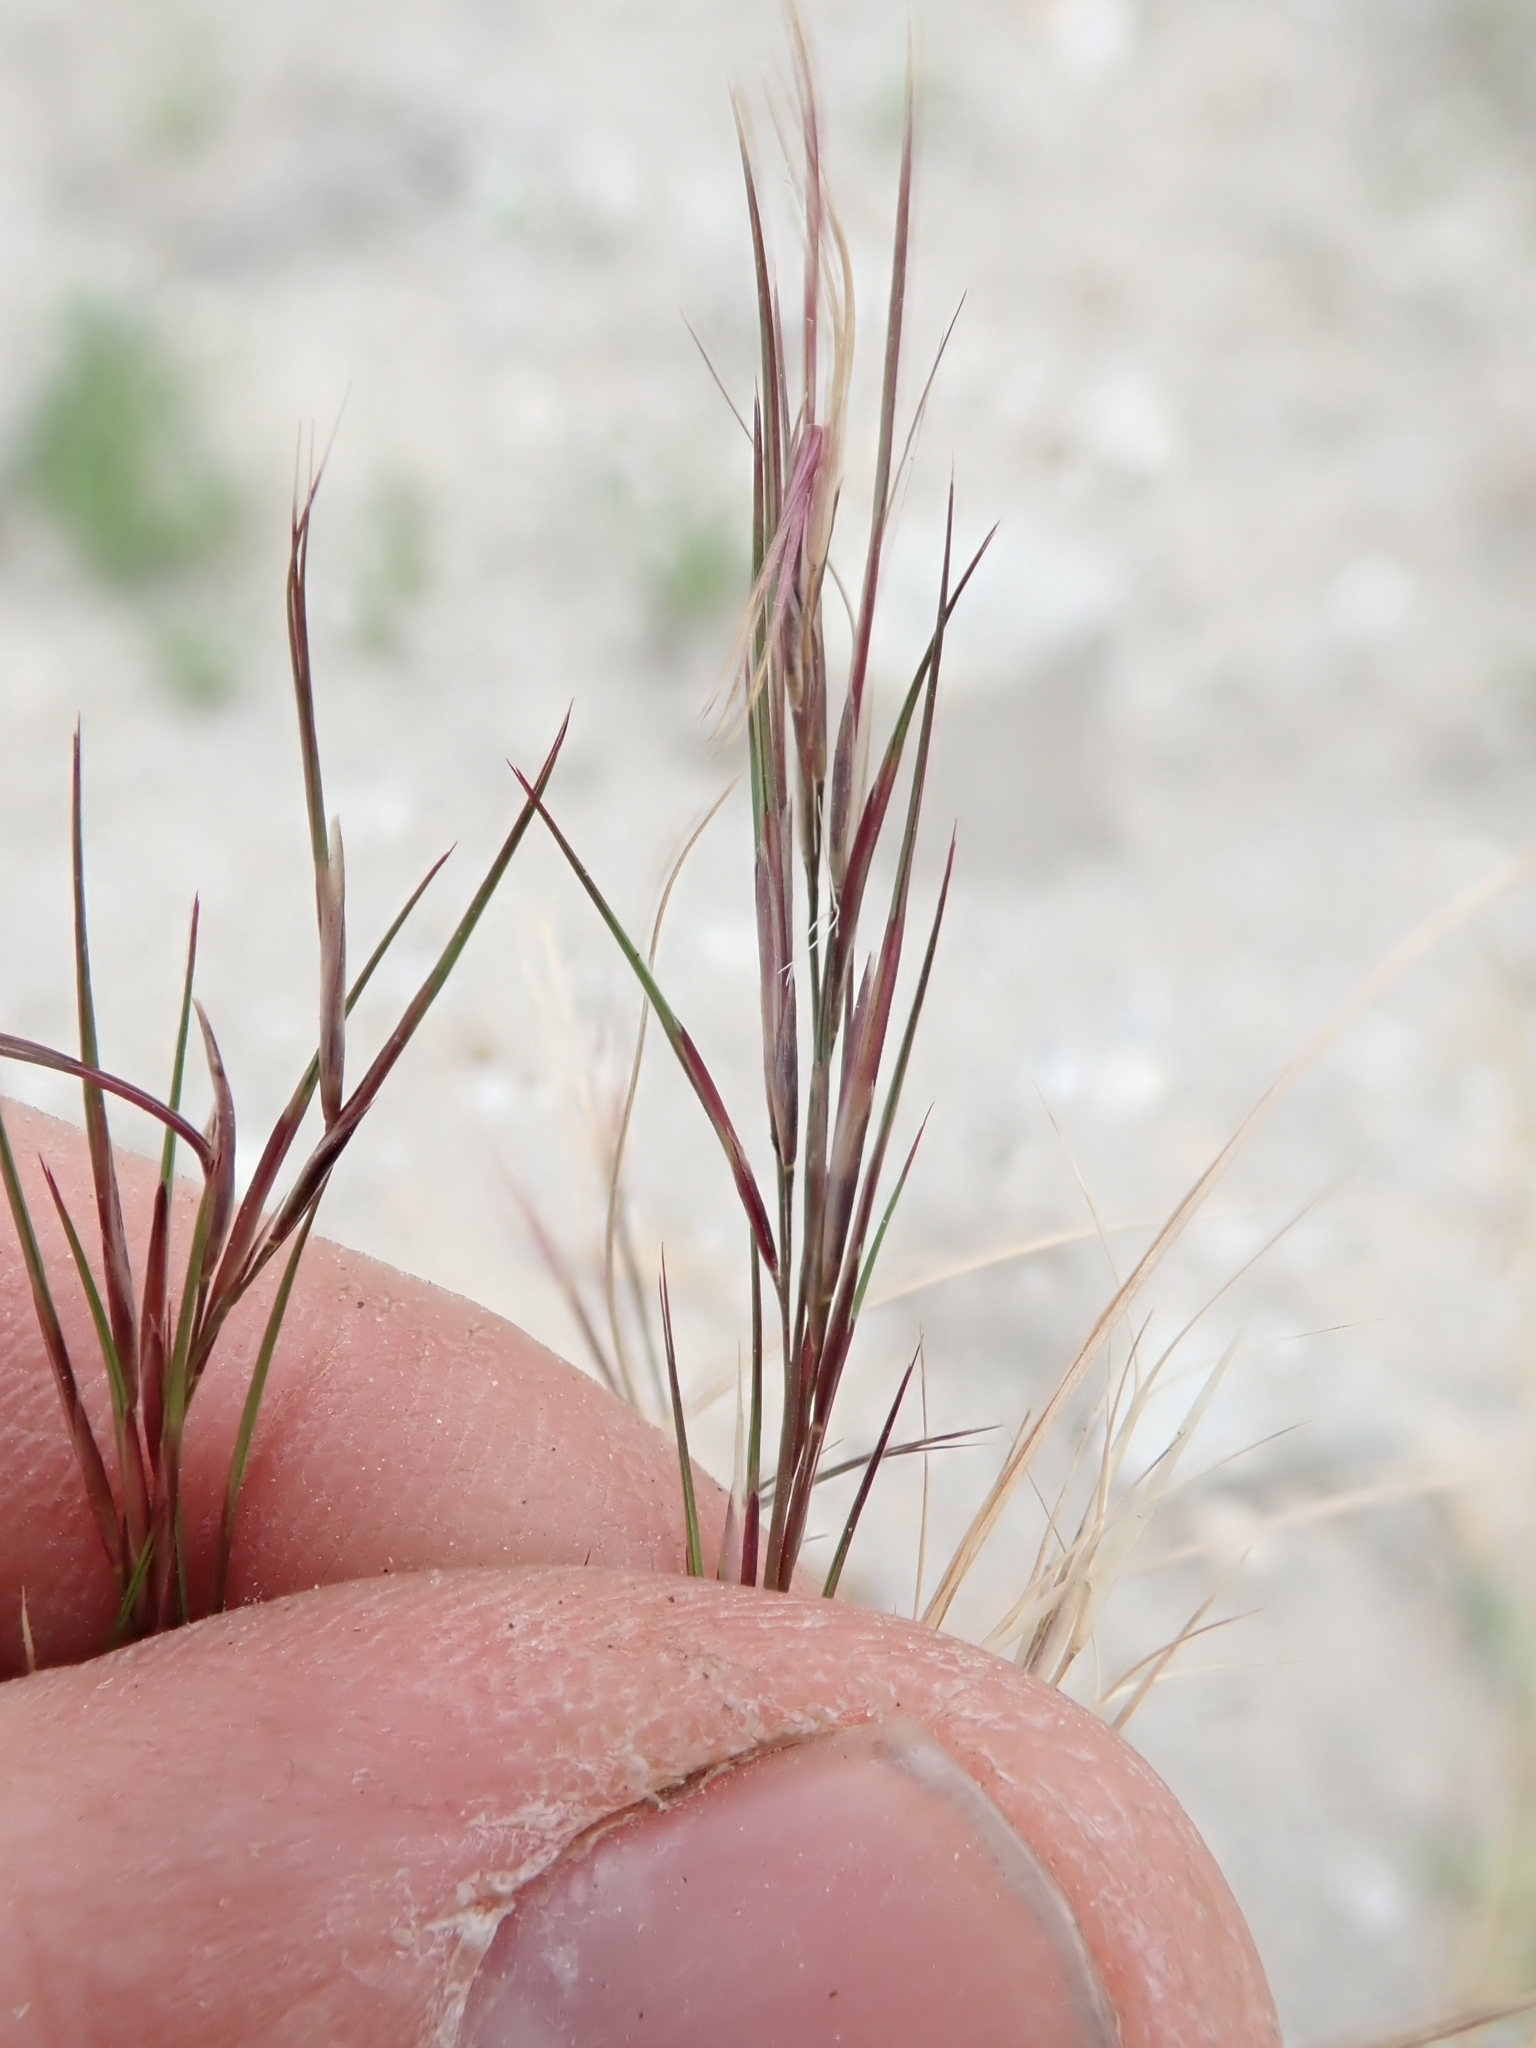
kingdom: Plantae
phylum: Tracheophyta
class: Liliopsida
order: Poales
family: Poaceae
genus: Aristida
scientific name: Aristida adscensionis
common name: Sixweeks threeawn
